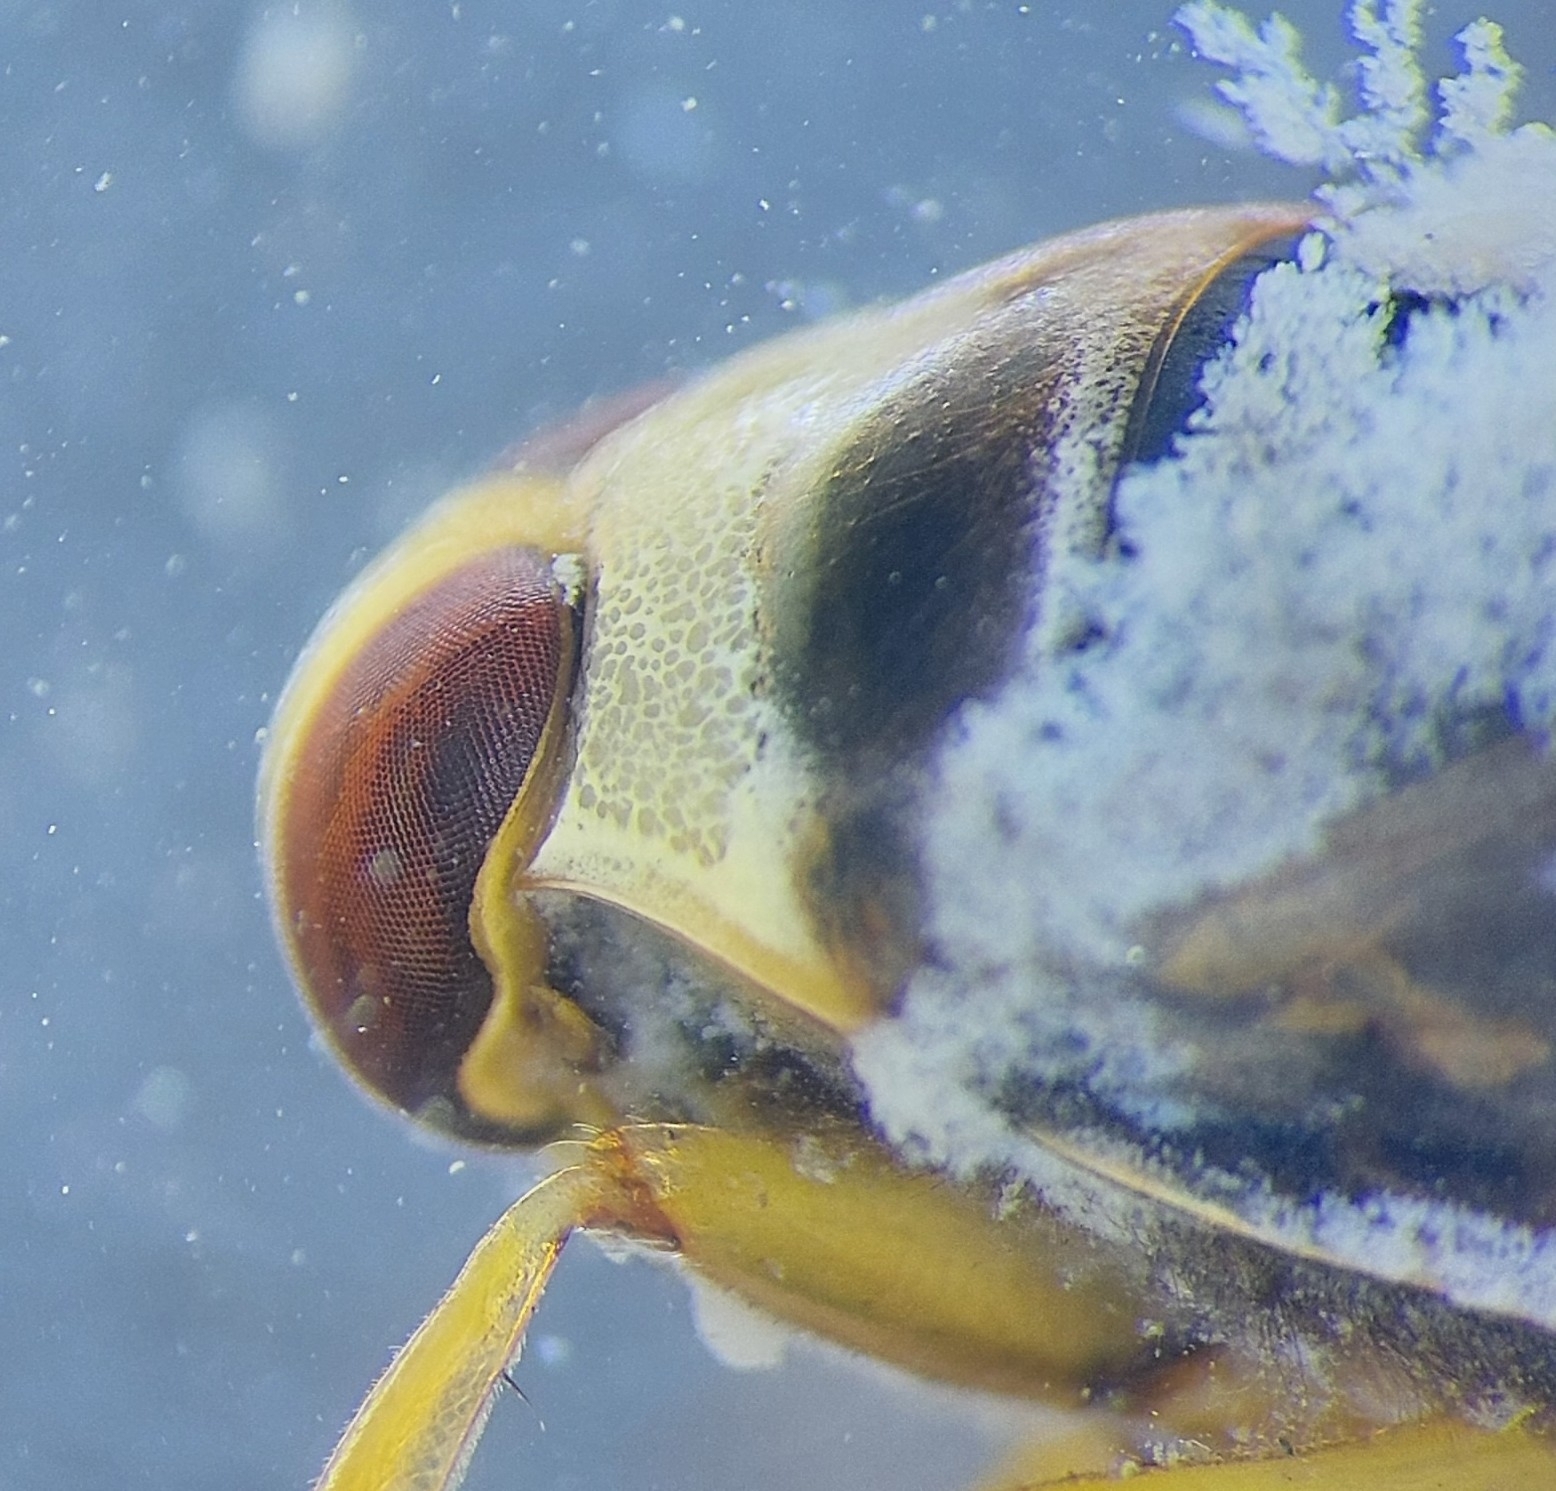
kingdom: Animalia
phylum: Arthropoda
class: Insecta
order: Hemiptera
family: Notonectidae
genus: Notonecta
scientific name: Notonecta viridis
